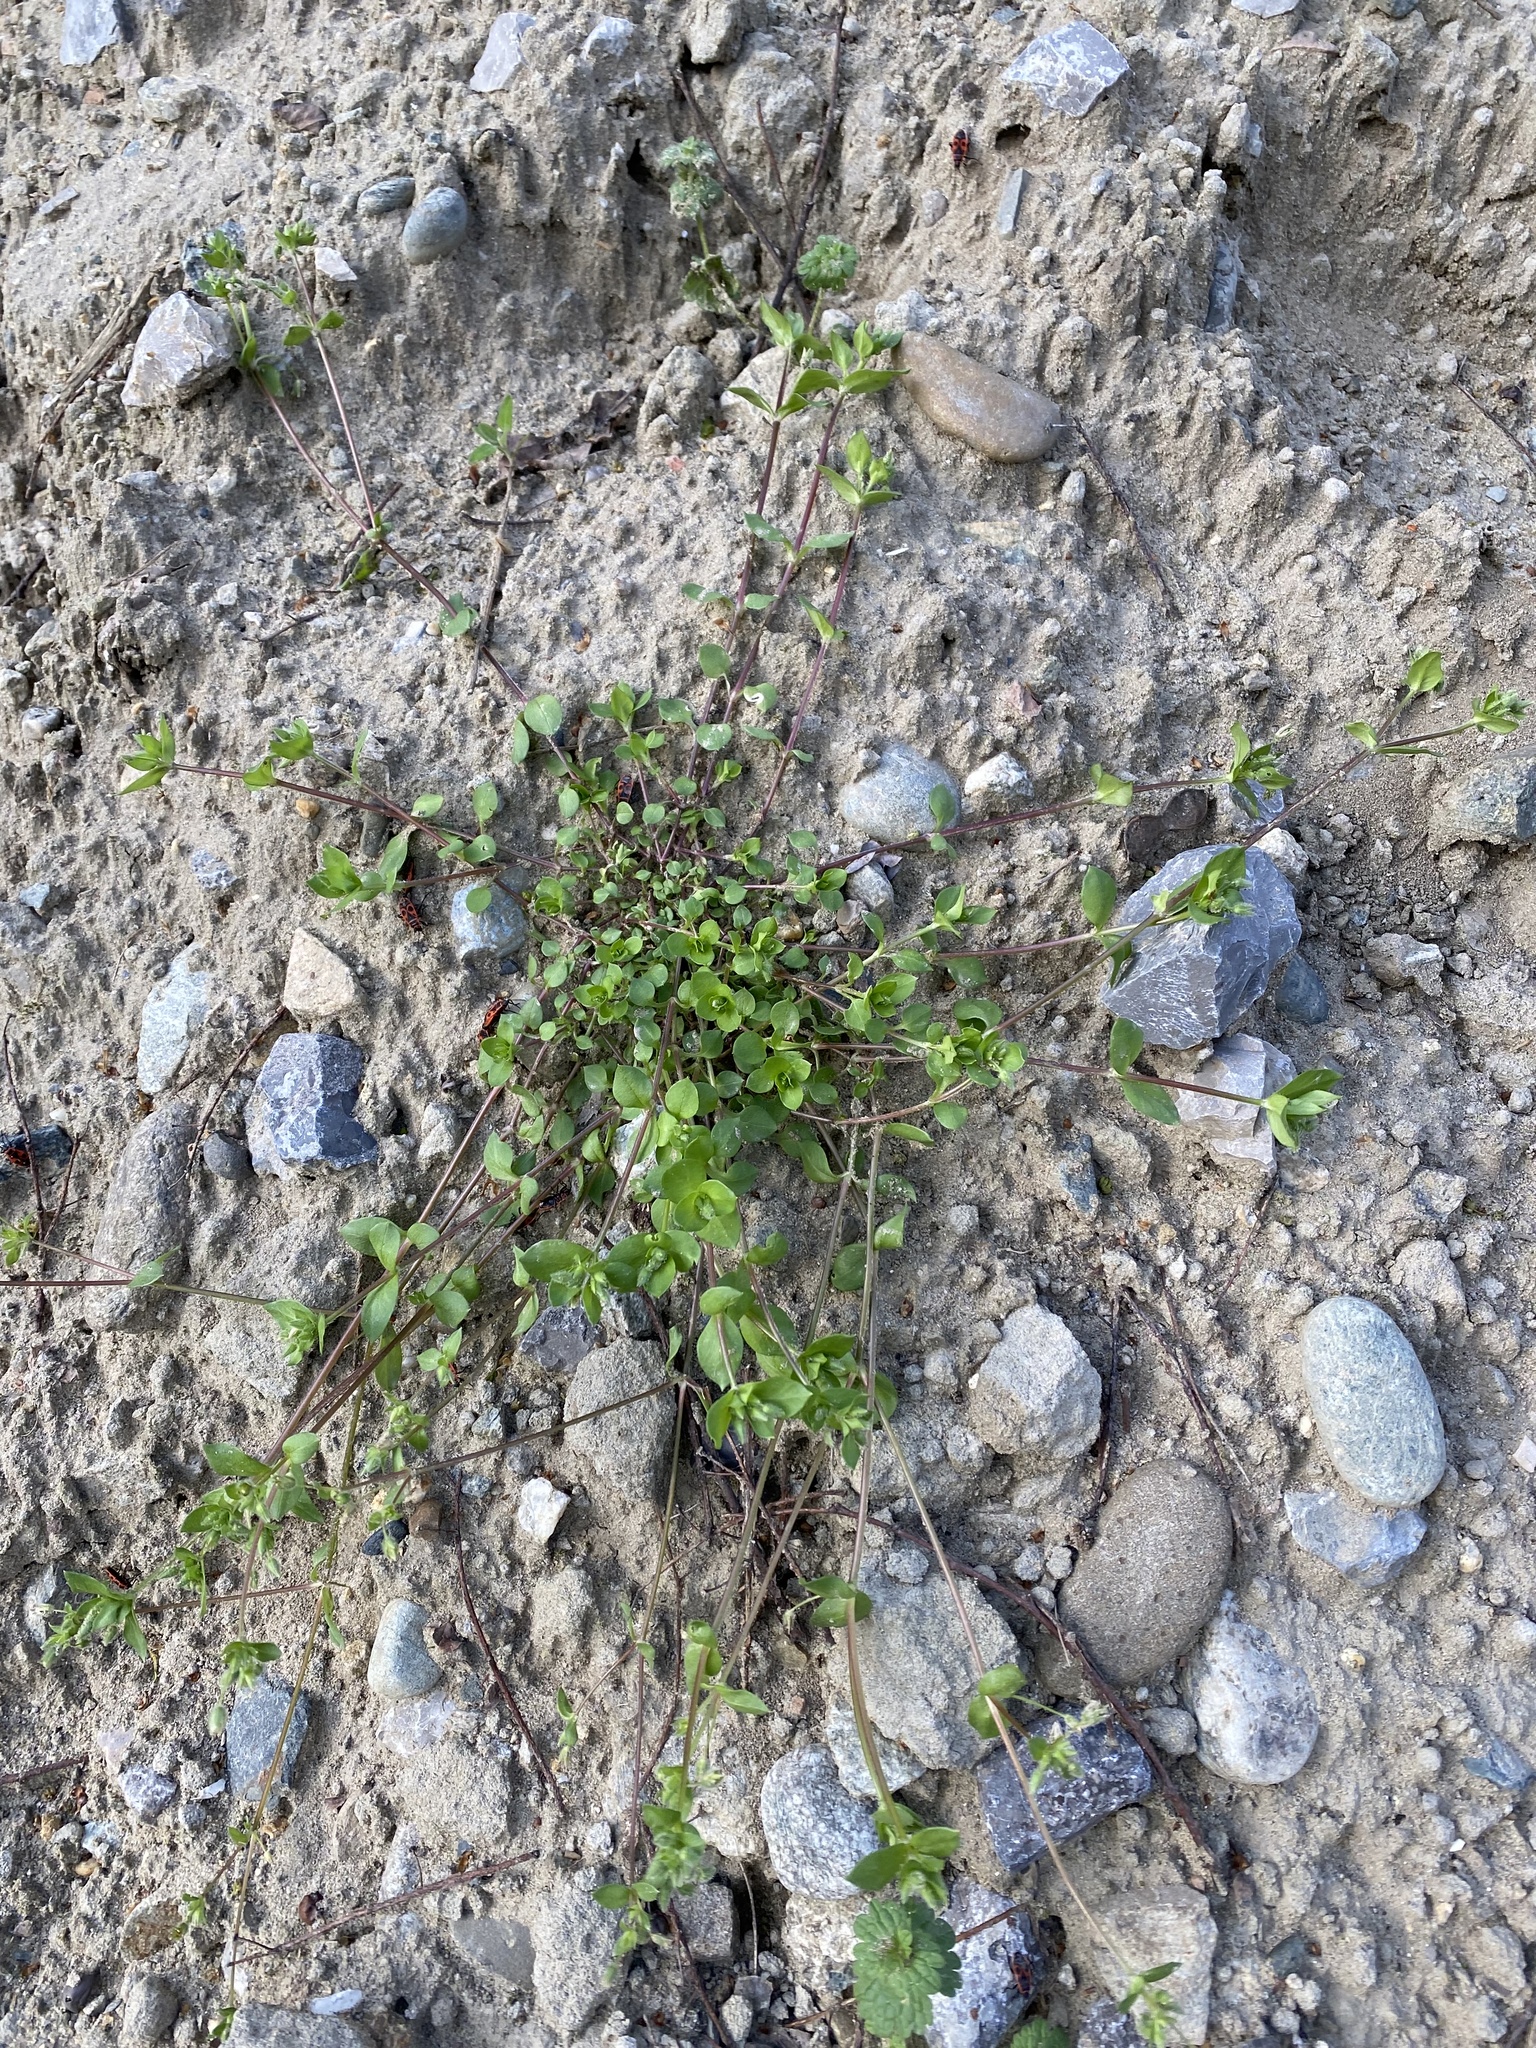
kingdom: Plantae
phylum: Tracheophyta
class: Magnoliopsida
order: Caryophyllales
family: Caryophyllaceae
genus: Stellaria
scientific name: Stellaria media
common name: Common chickweed
